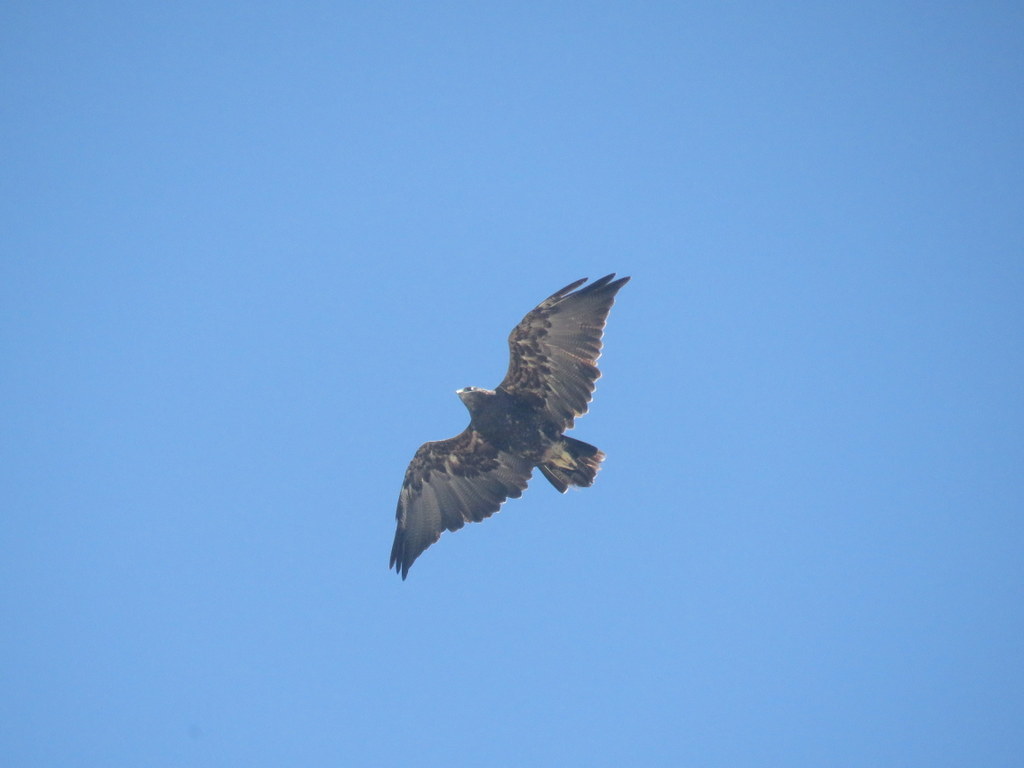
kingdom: Animalia
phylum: Chordata
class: Aves
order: Accipitriformes
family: Accipitridae
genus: Geranoaetus
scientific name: Geranoaetus melanoleucus
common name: Black-chested buzzard-eagle
